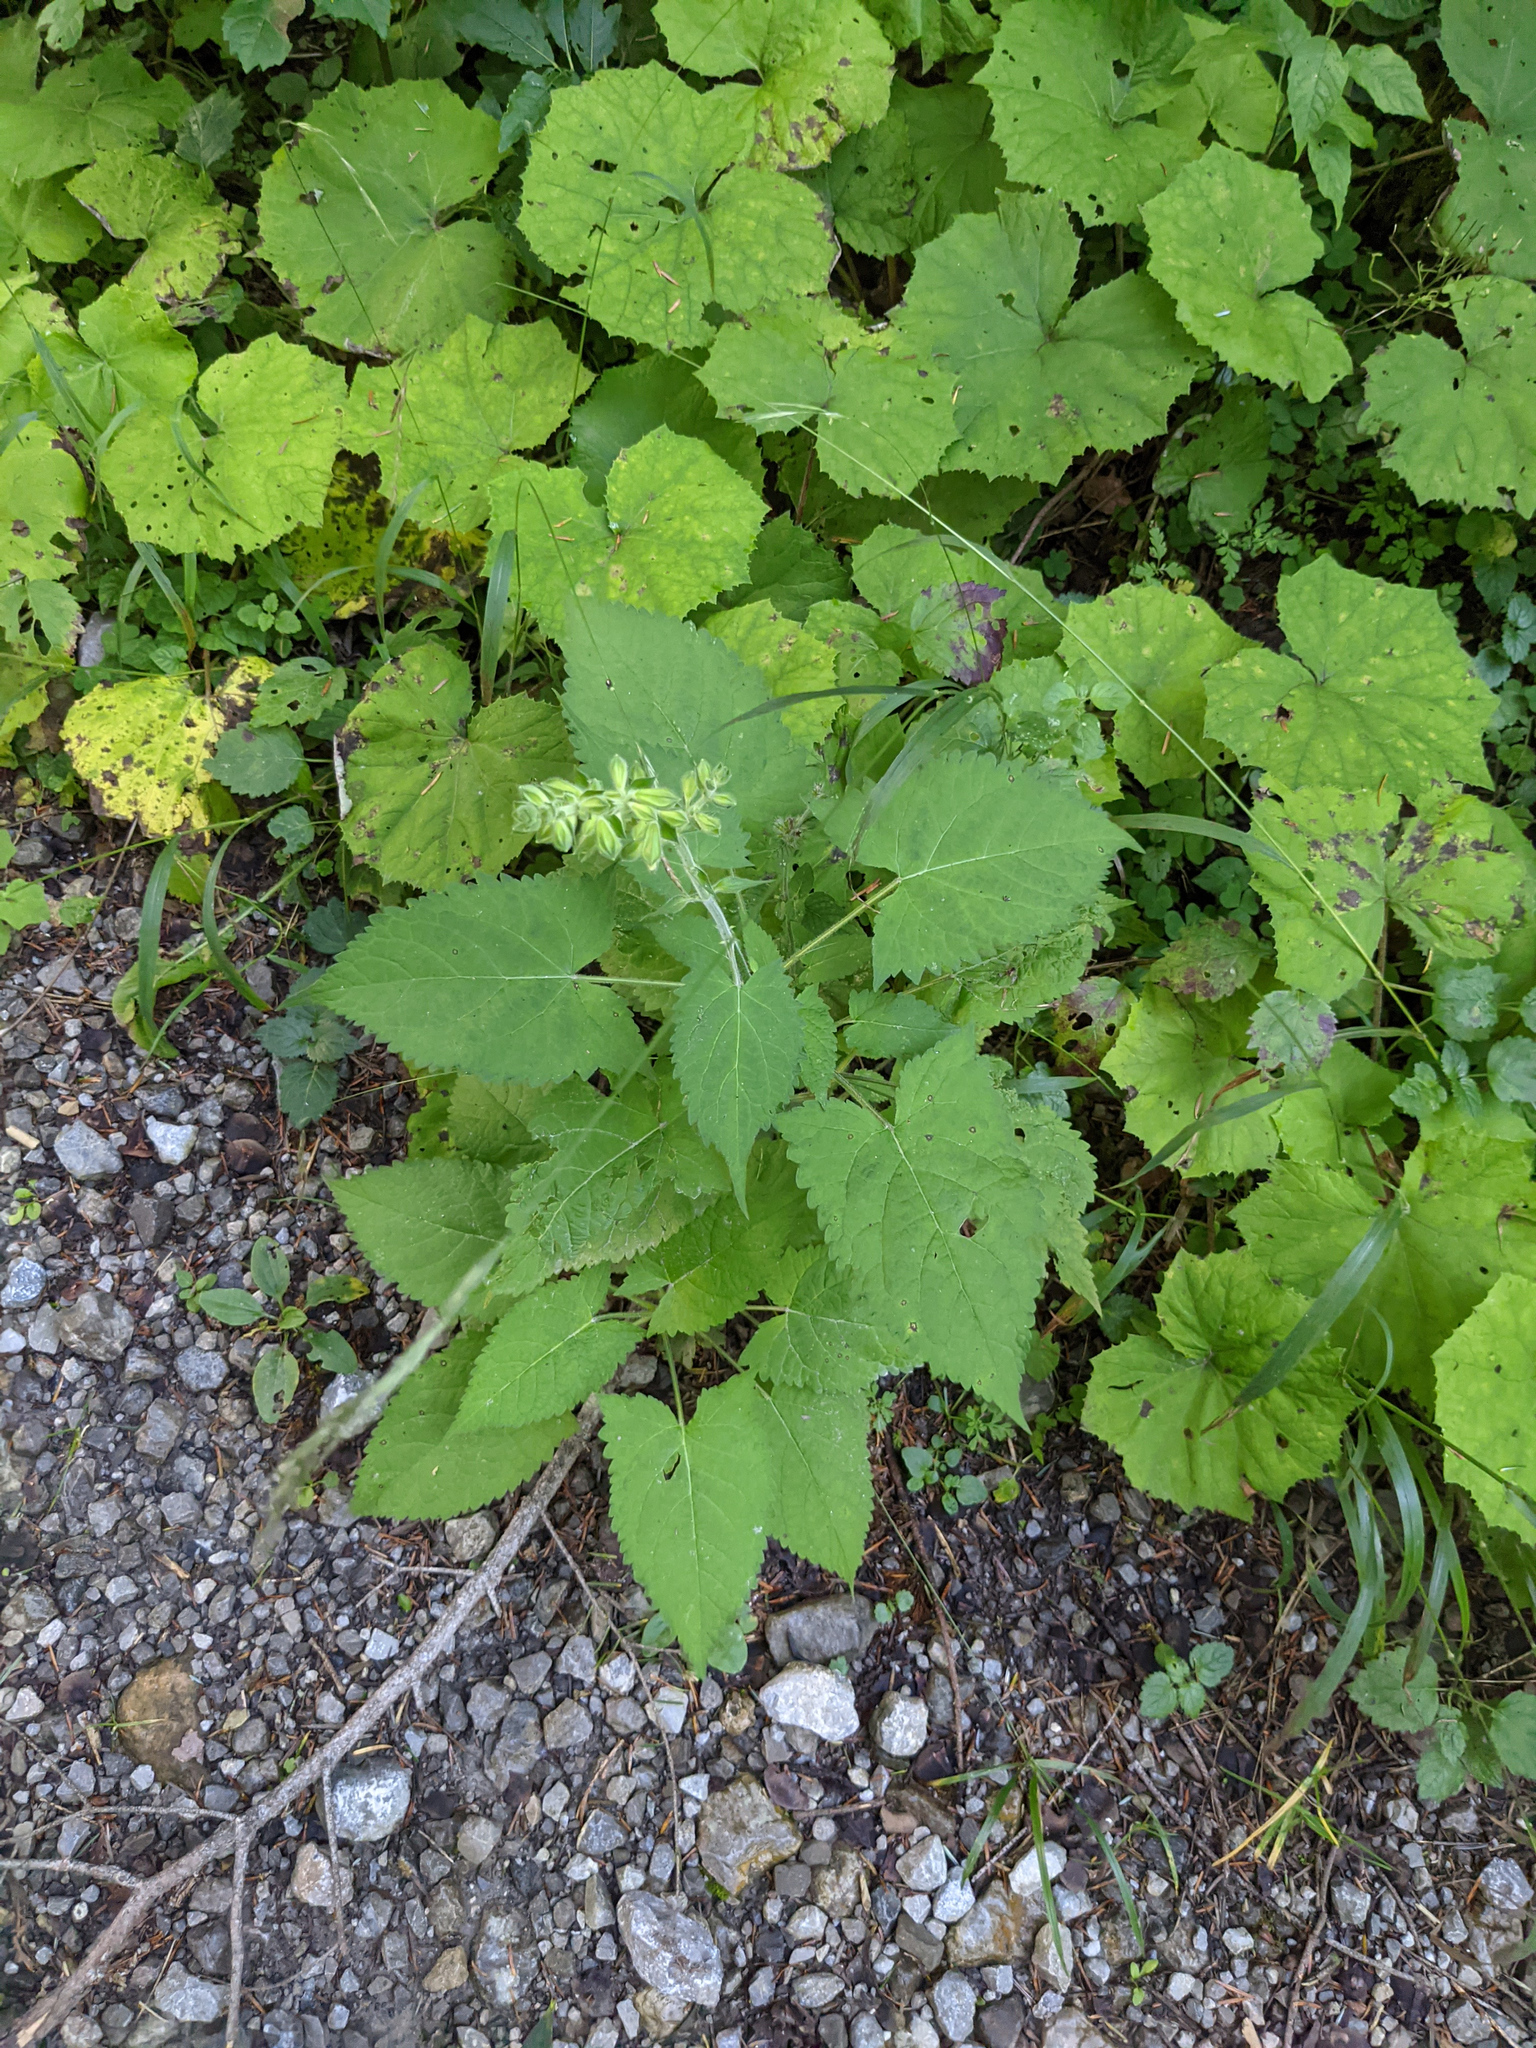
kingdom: Plantae
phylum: Tracheophyta
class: Magnoliopsida
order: Lamiales
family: Lamiaceae
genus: Salvia
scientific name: Salvia glutinosa
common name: Sticky clary
